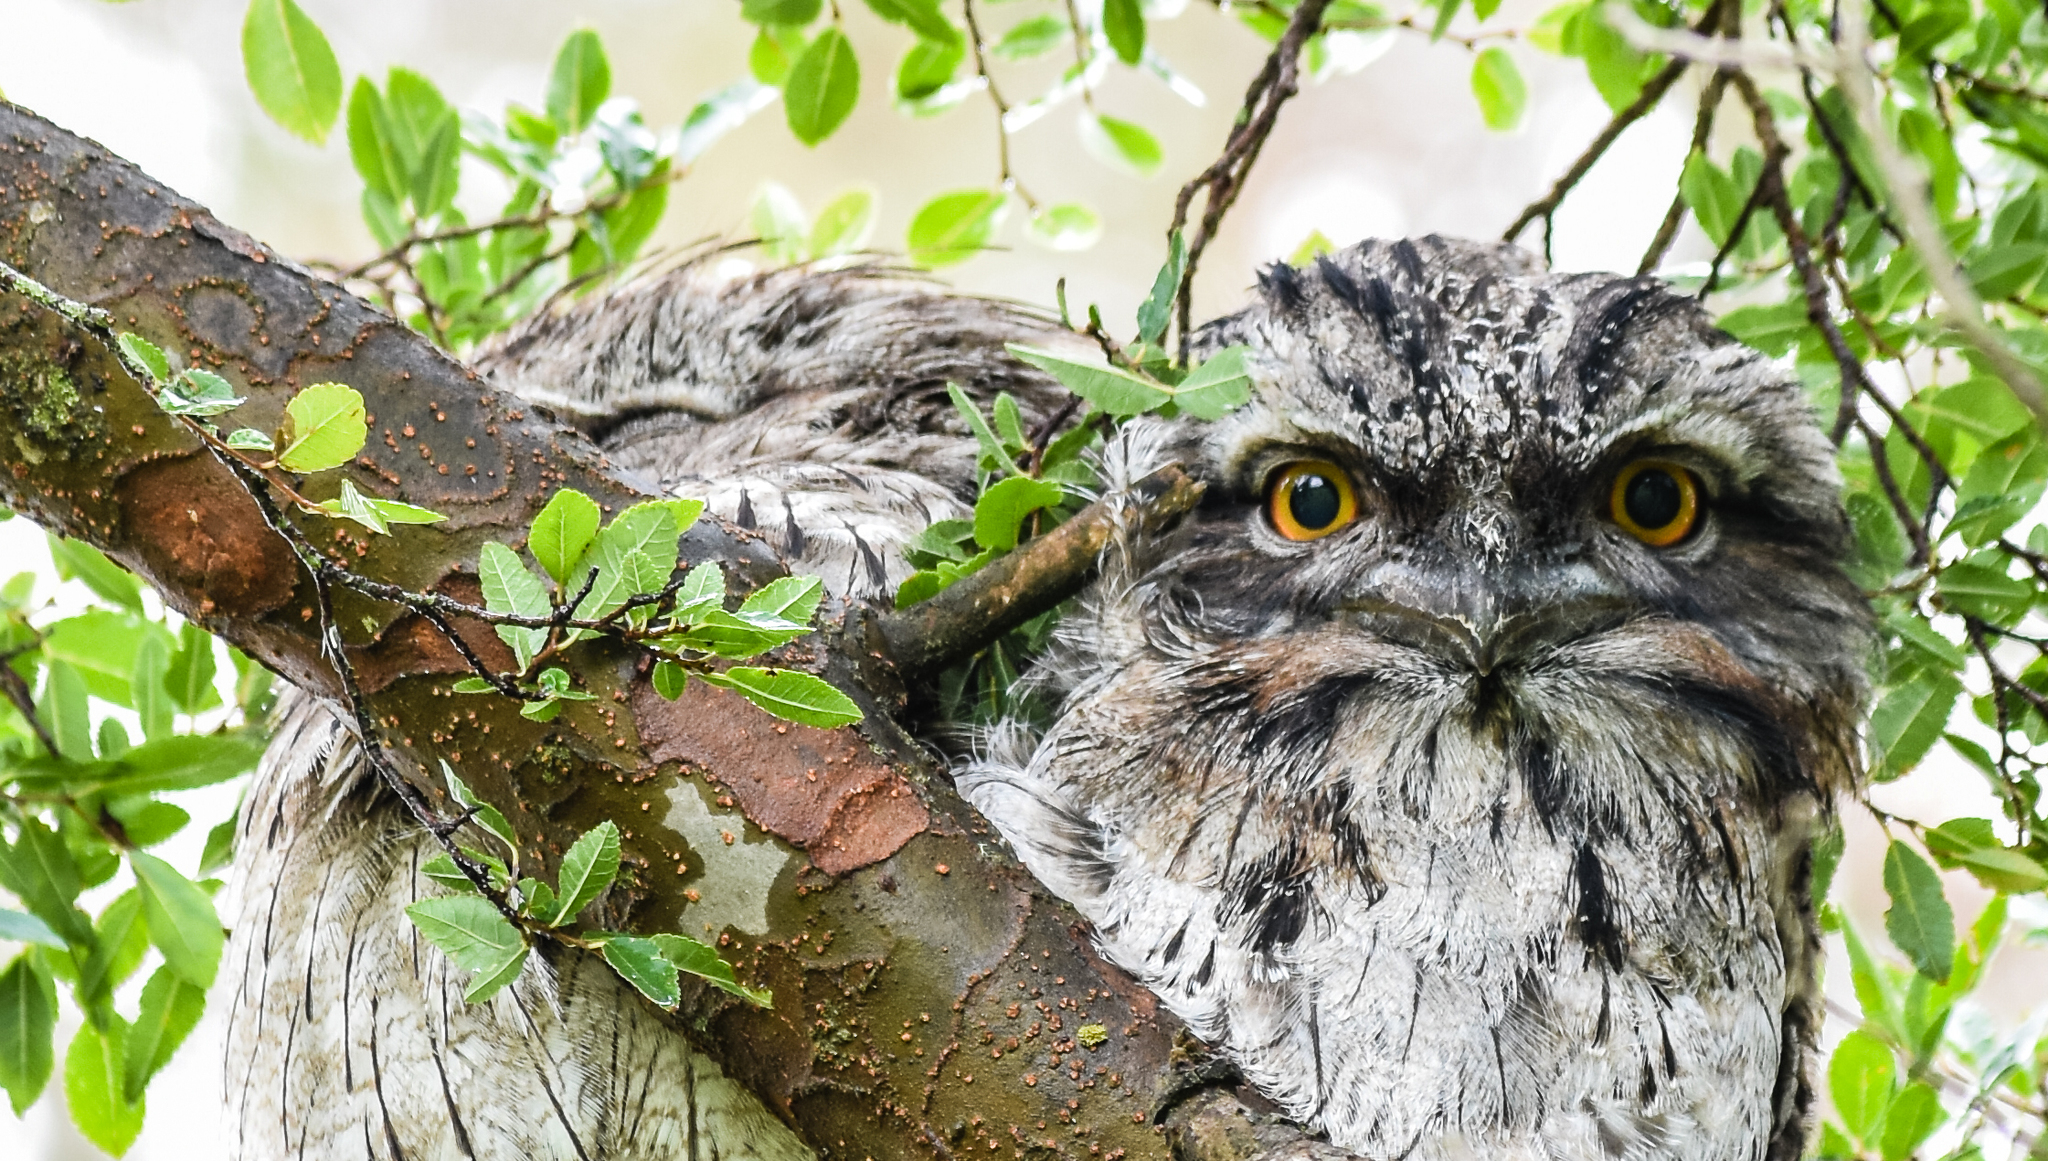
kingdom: Animalia
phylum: Chordata
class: Aves
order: Caprimulgiformes
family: Podargidae
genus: Podargus
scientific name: Podargus strigoides
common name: Tawny frogmouth
